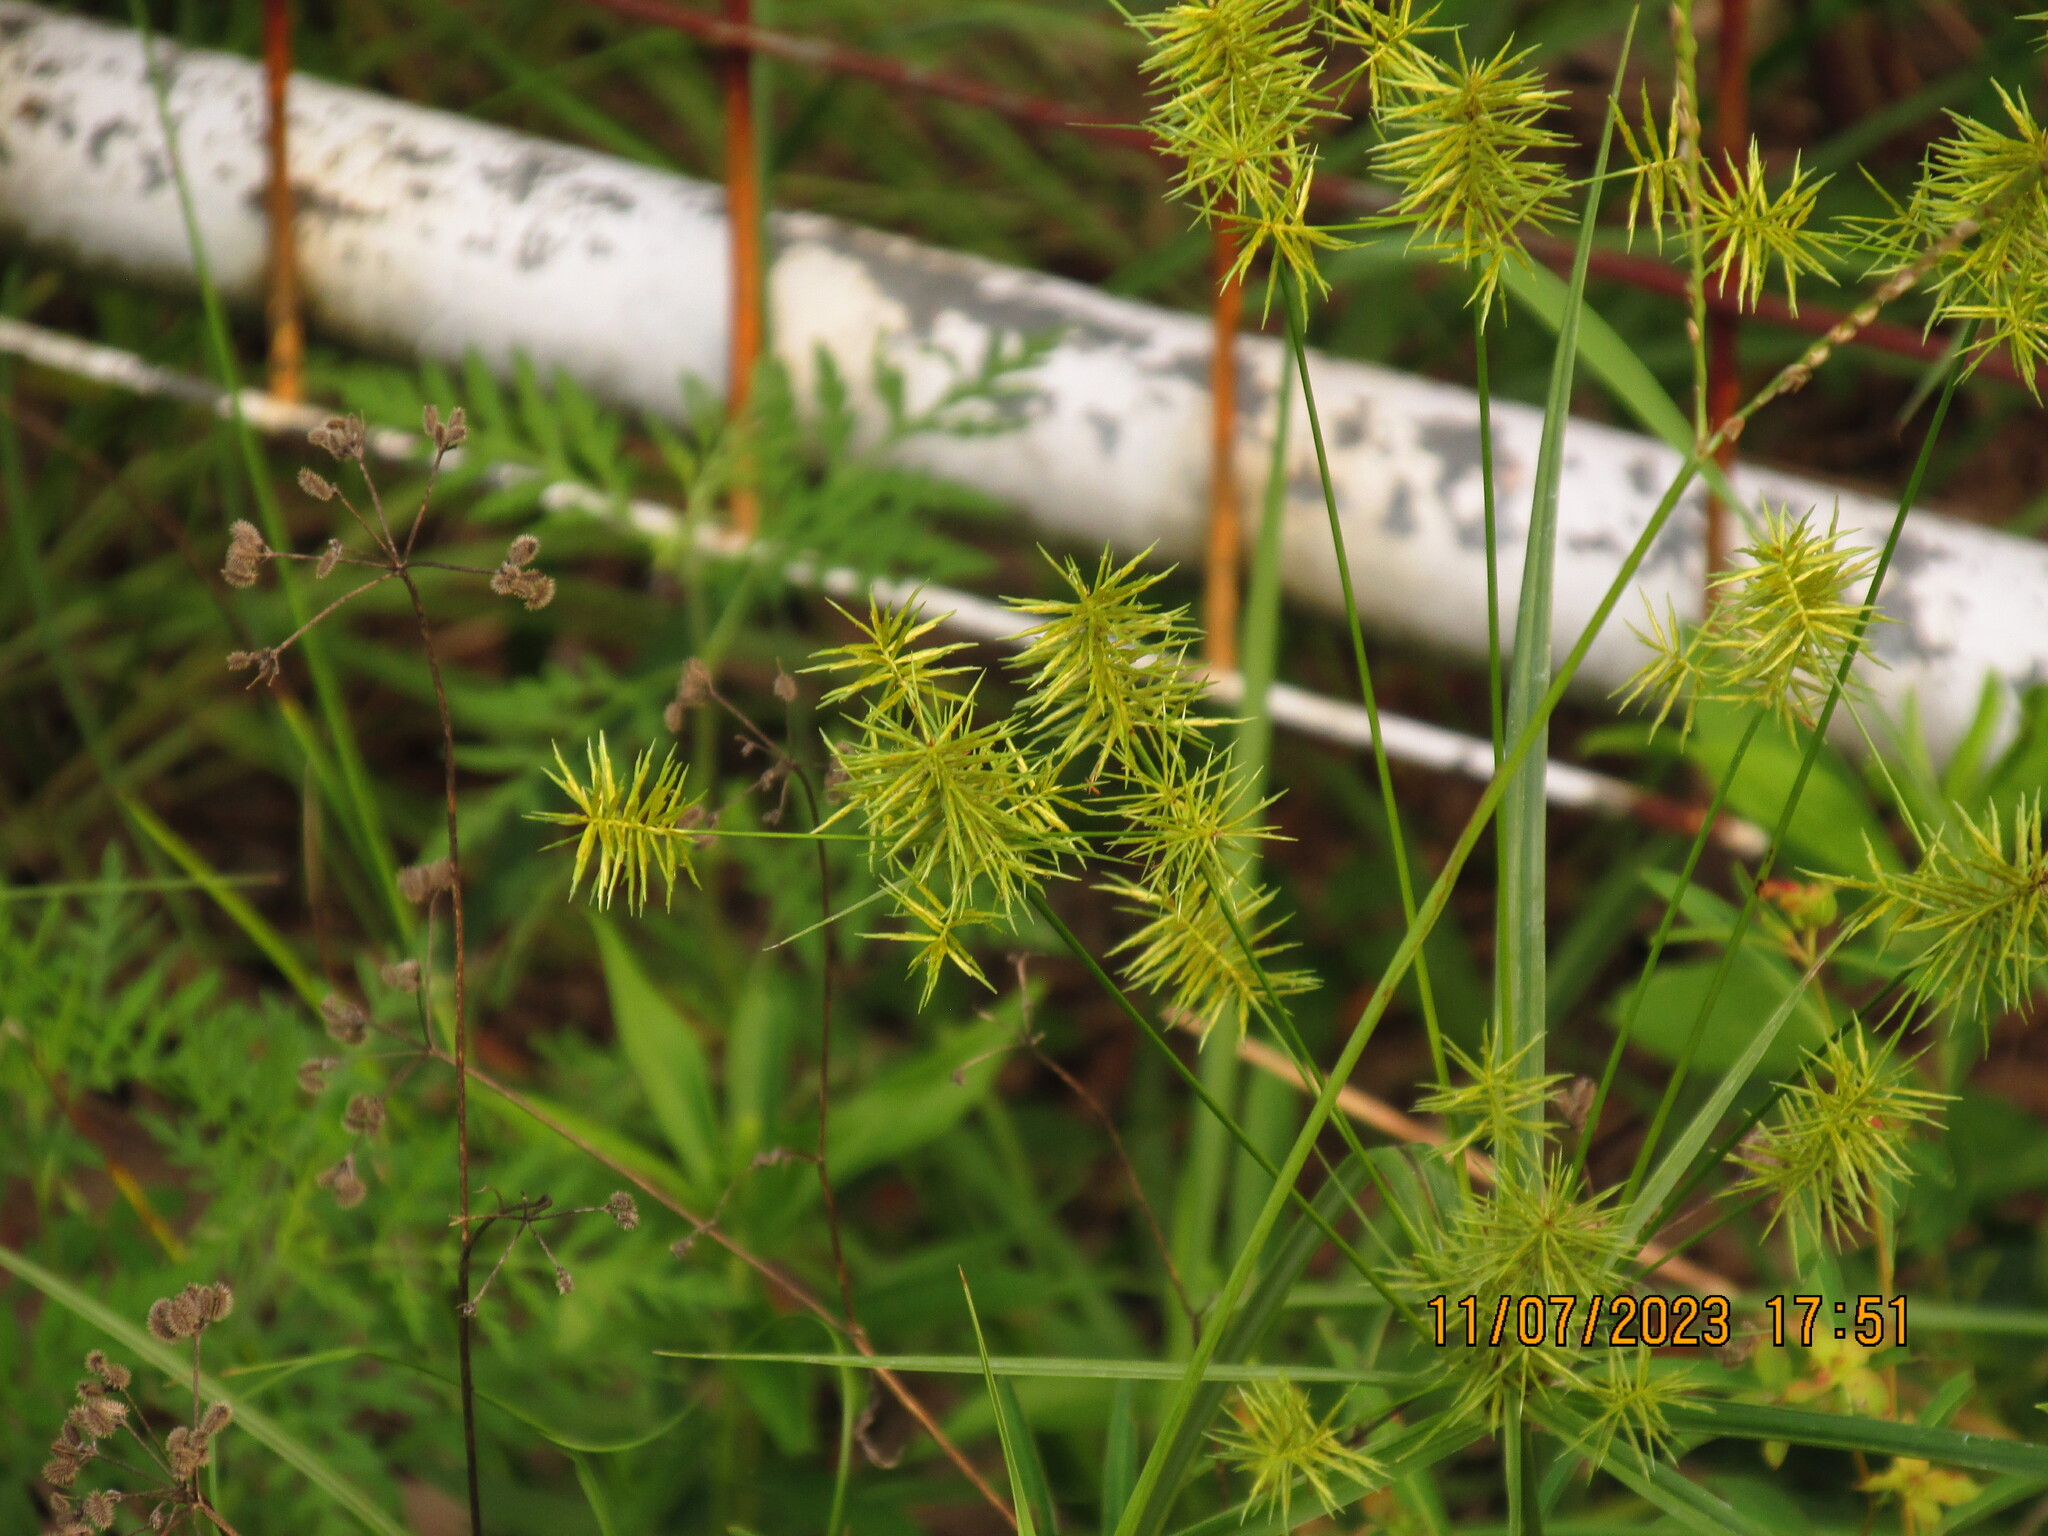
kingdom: Plantae
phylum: Tracheophyta
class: Liliopsida
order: Poales
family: Cyperaceae
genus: Cyperus
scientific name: Cyperus strigosus
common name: False nutsedge
